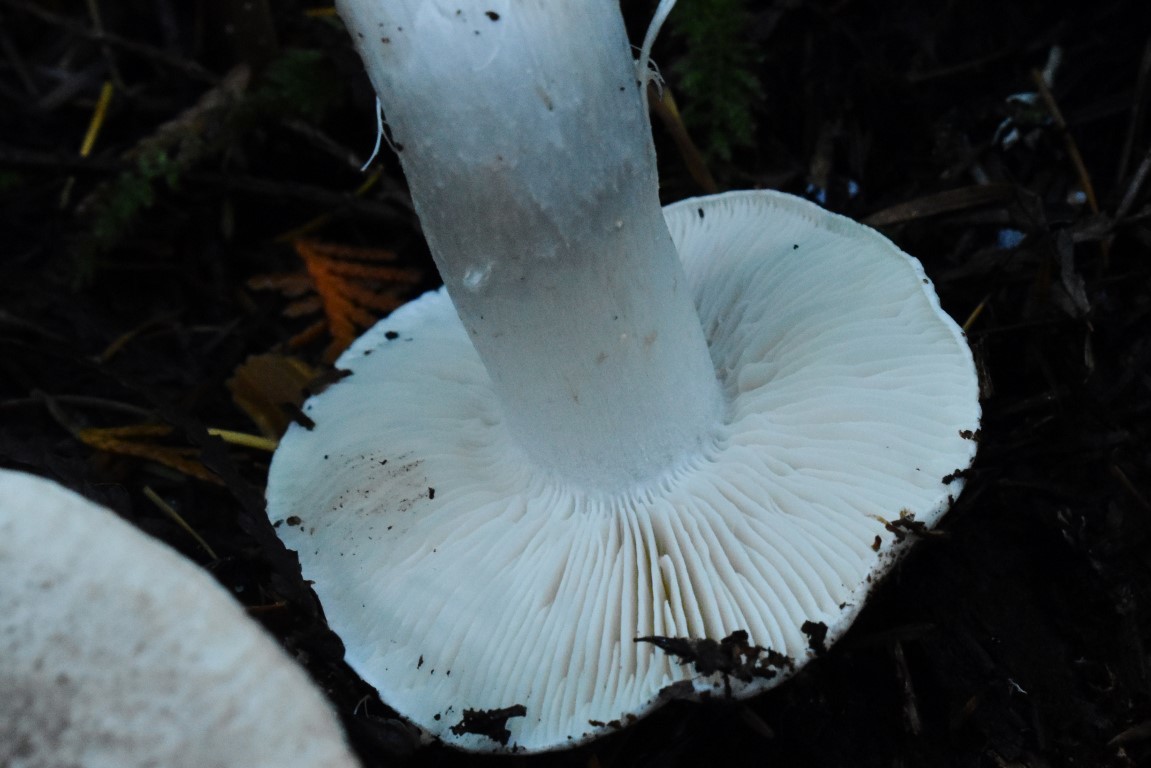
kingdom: Fungi
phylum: Basidiomycota
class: Agaricomycetes
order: Agaricales
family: Tricholomataceae
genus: Tricholoma
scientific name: Tricholoma pardinum
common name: Leopard knight
